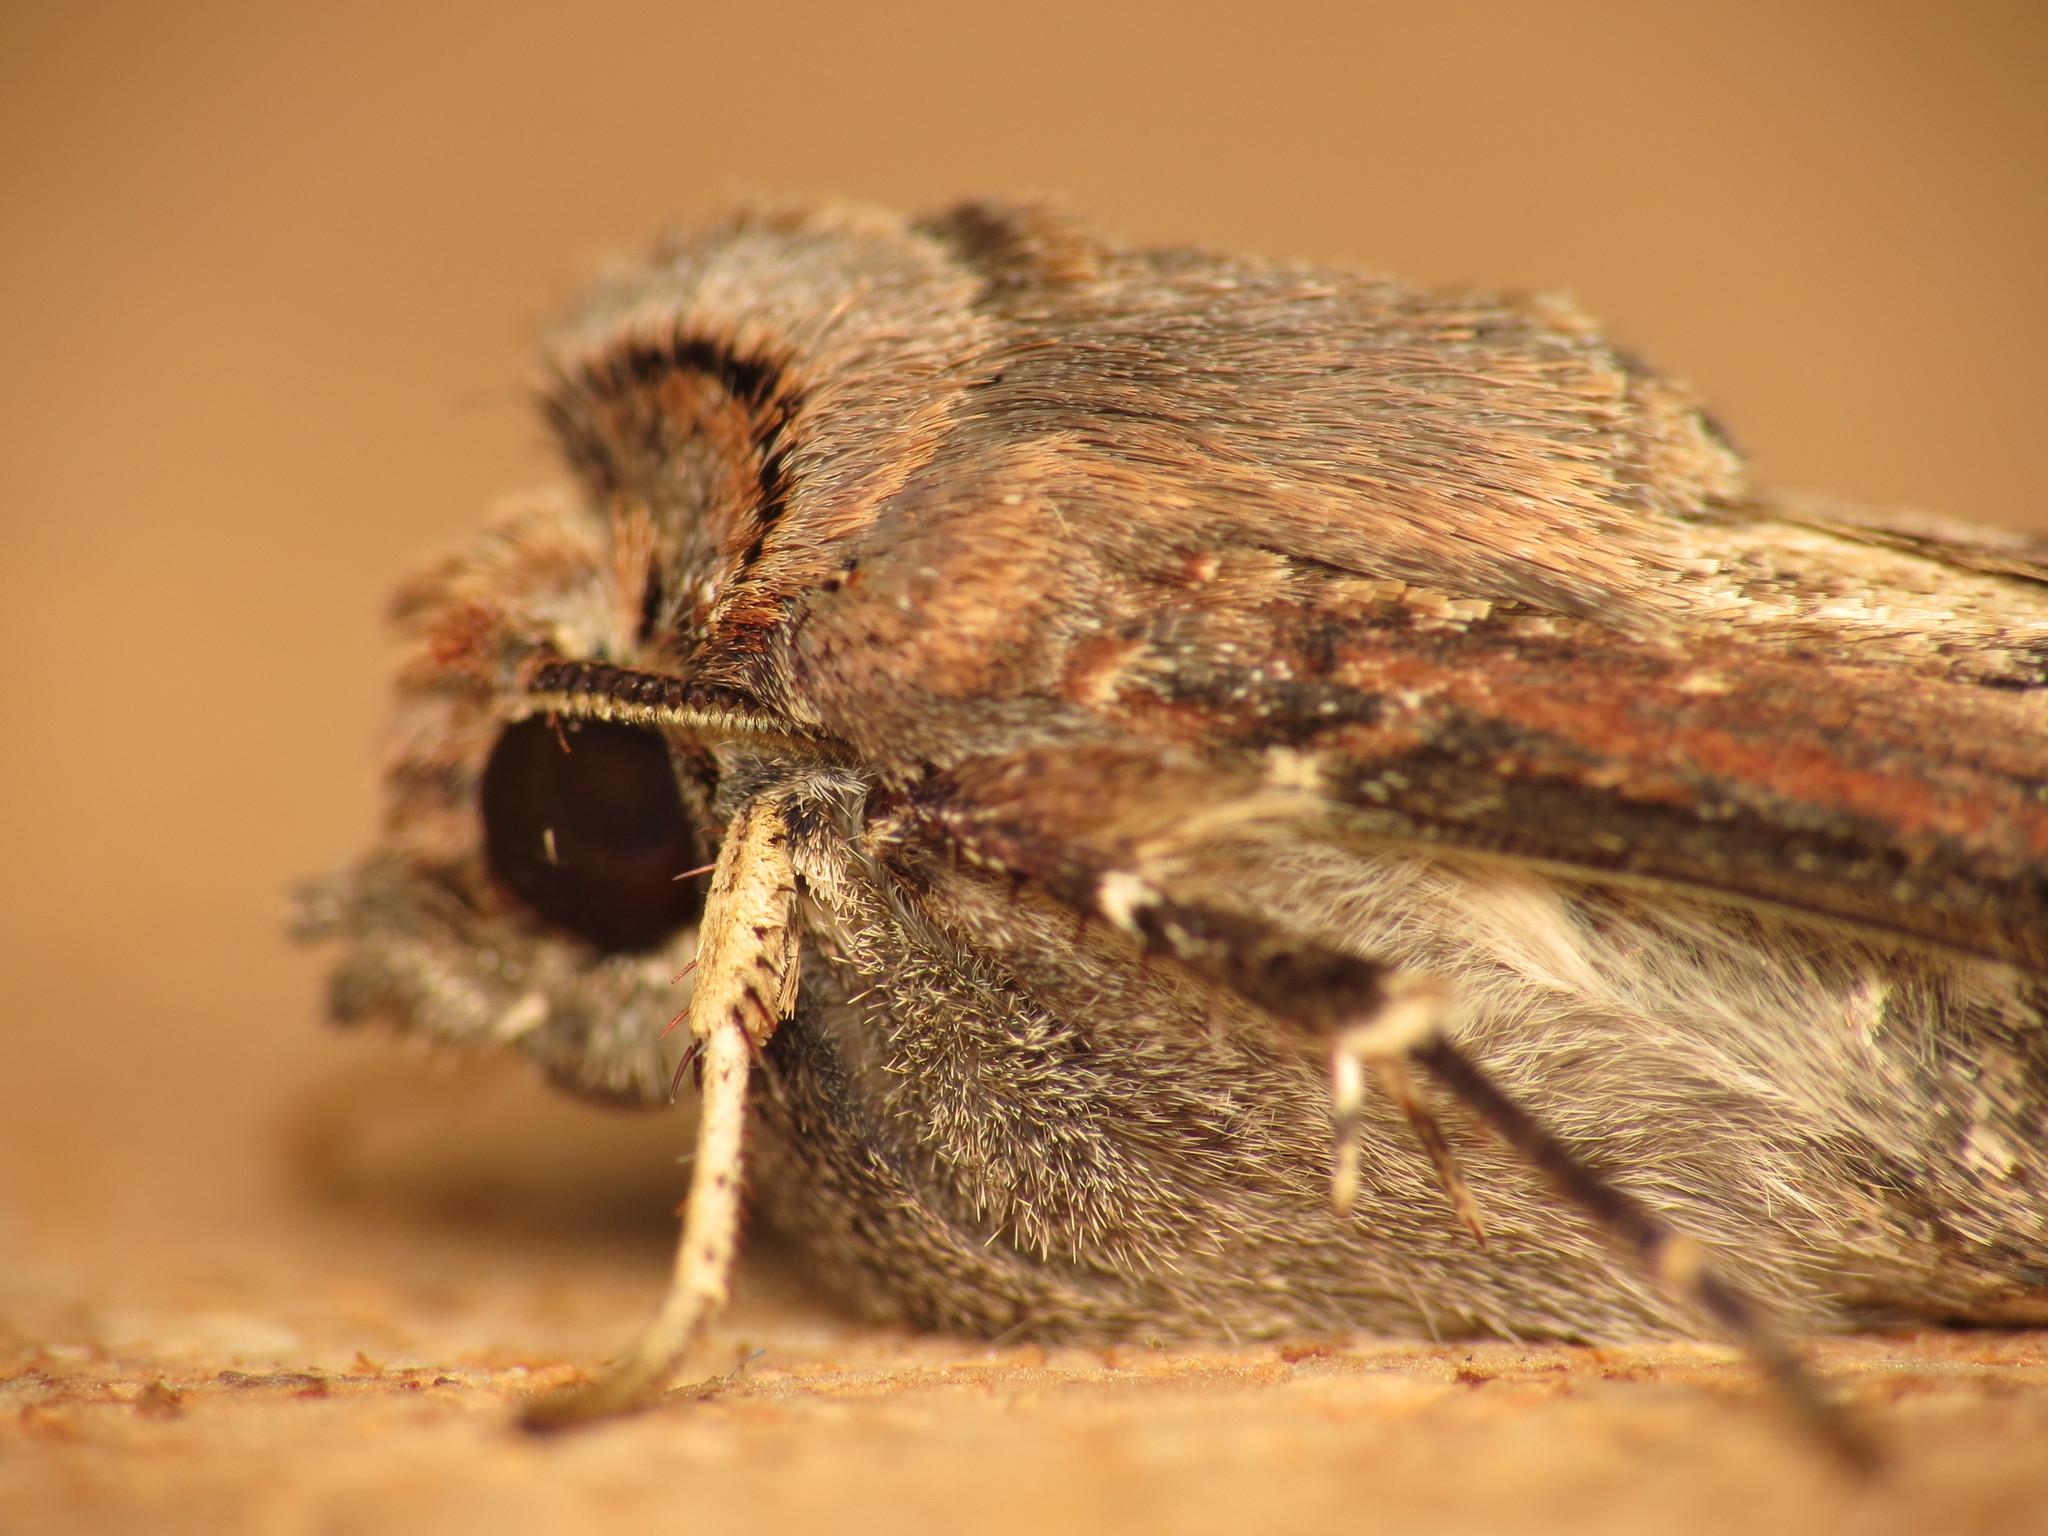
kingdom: Animalia
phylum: Arthropoda
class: Insecta
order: Lepidoptera
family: Noctuidae
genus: Agrotis
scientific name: Agrotis ipsilon
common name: Dark sword-grass
